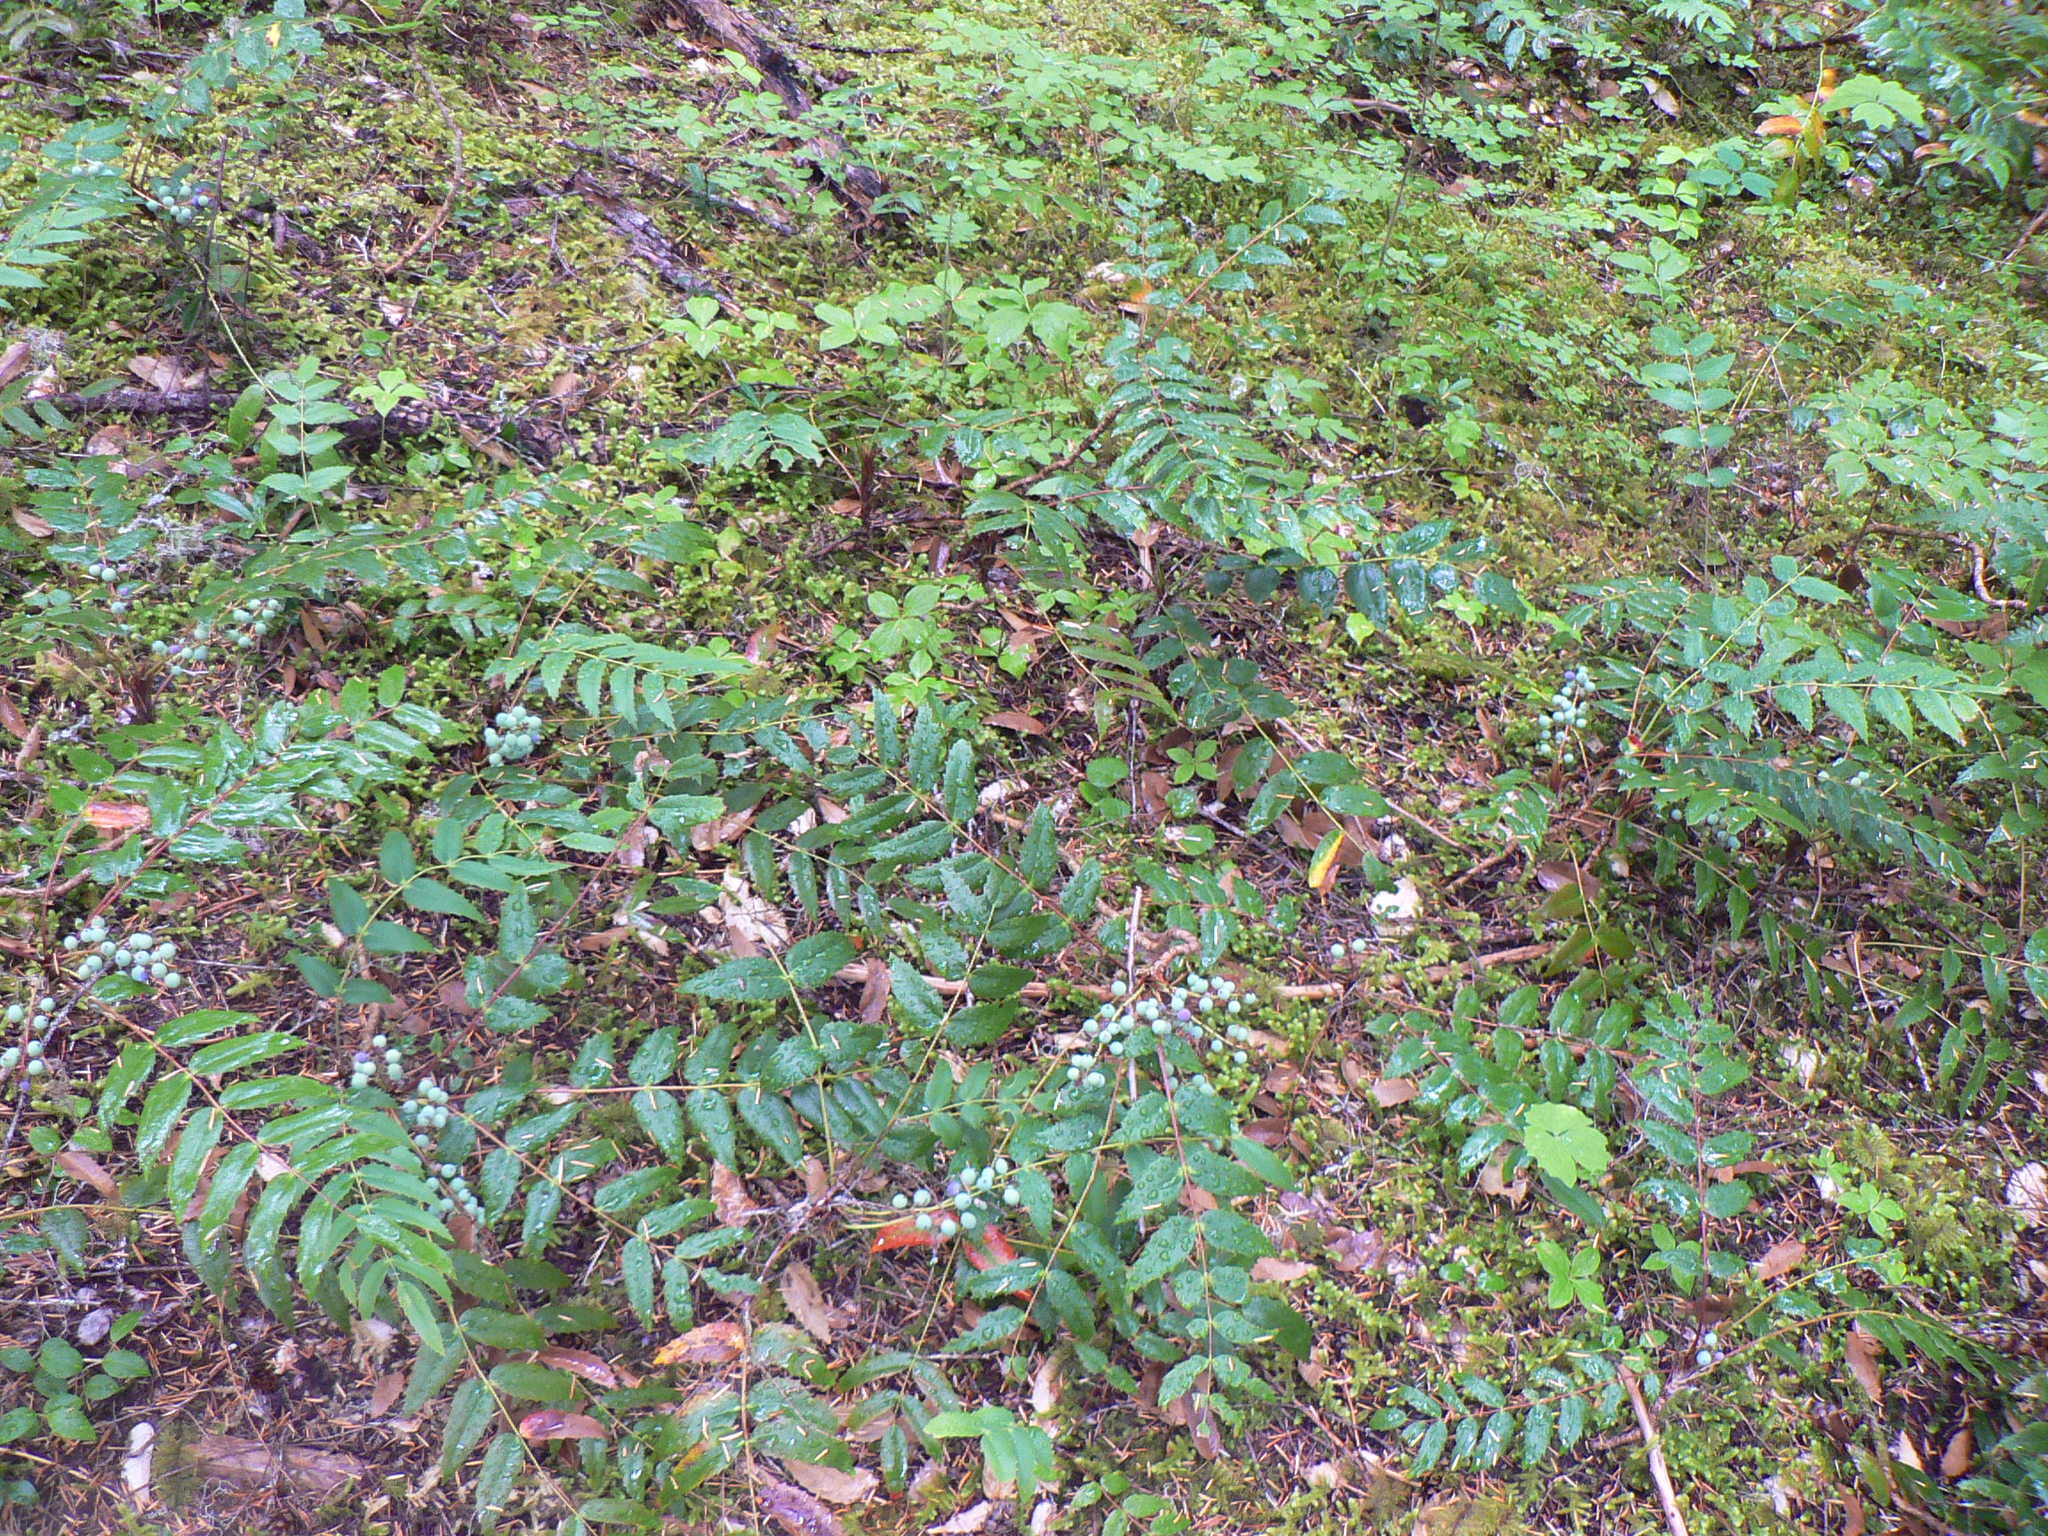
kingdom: Plantae
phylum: Tracheophyta
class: Magnoliopsida
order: Ranunculales
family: Berberidaceae
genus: Mahonia
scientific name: Mahonia nervosa
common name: Cascade oregon-grape
